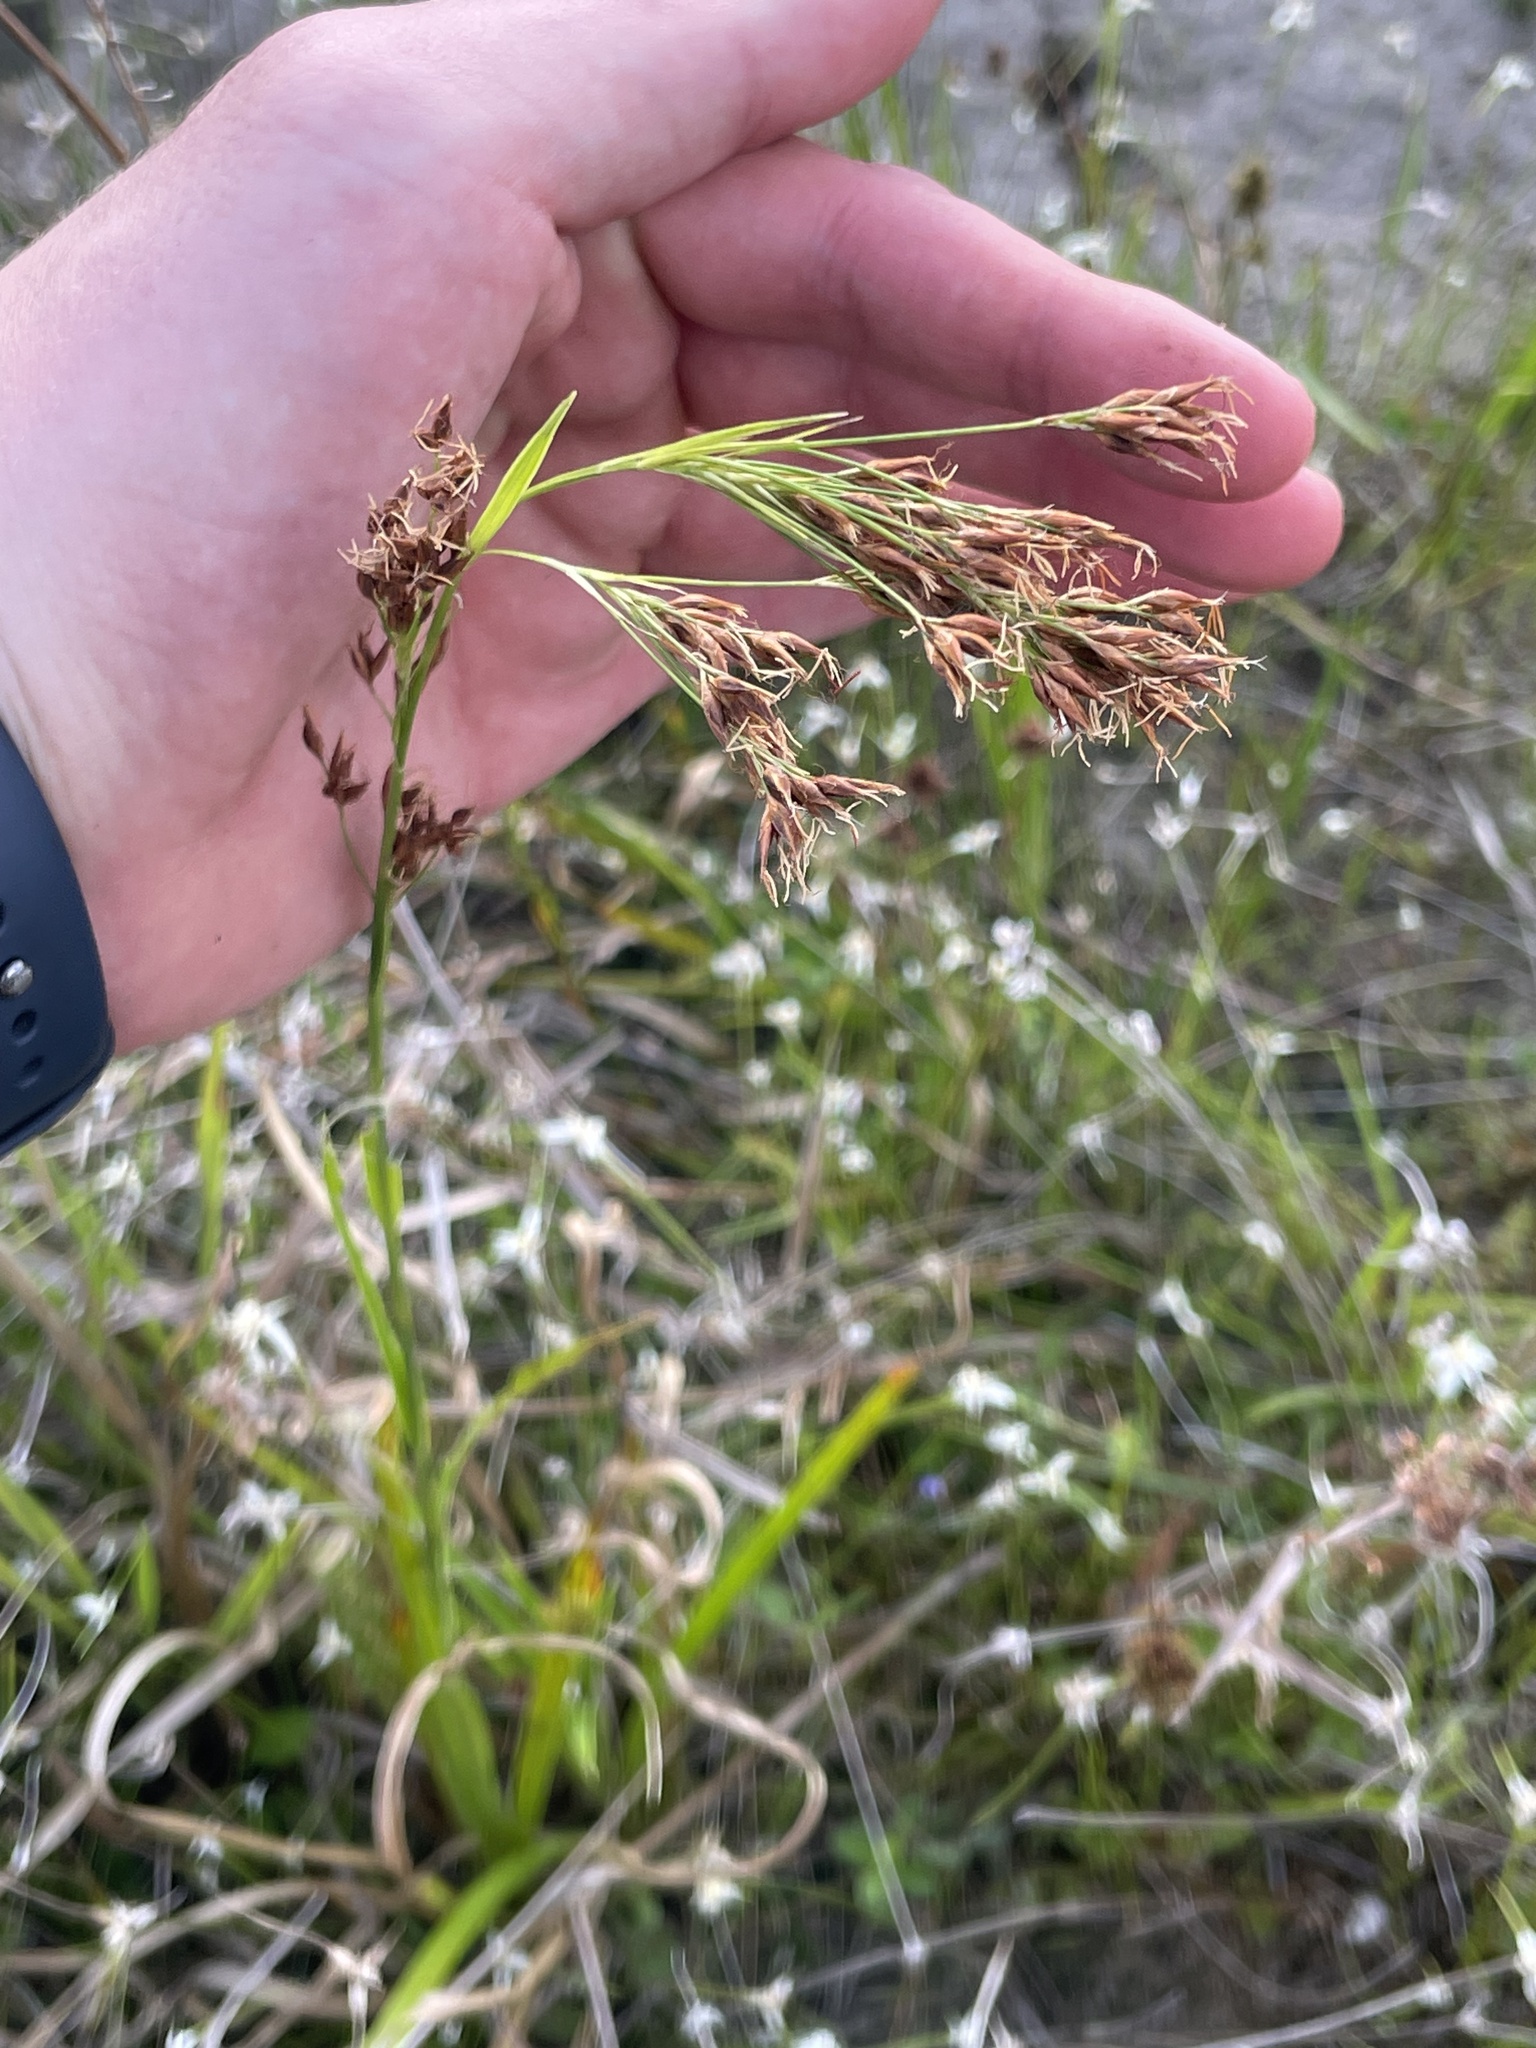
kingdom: Plantae
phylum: Tracheophyta
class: Liliopsida
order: Poales
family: Cyperaceae
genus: Rhynchospora
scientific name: Rhynchospora odorata
